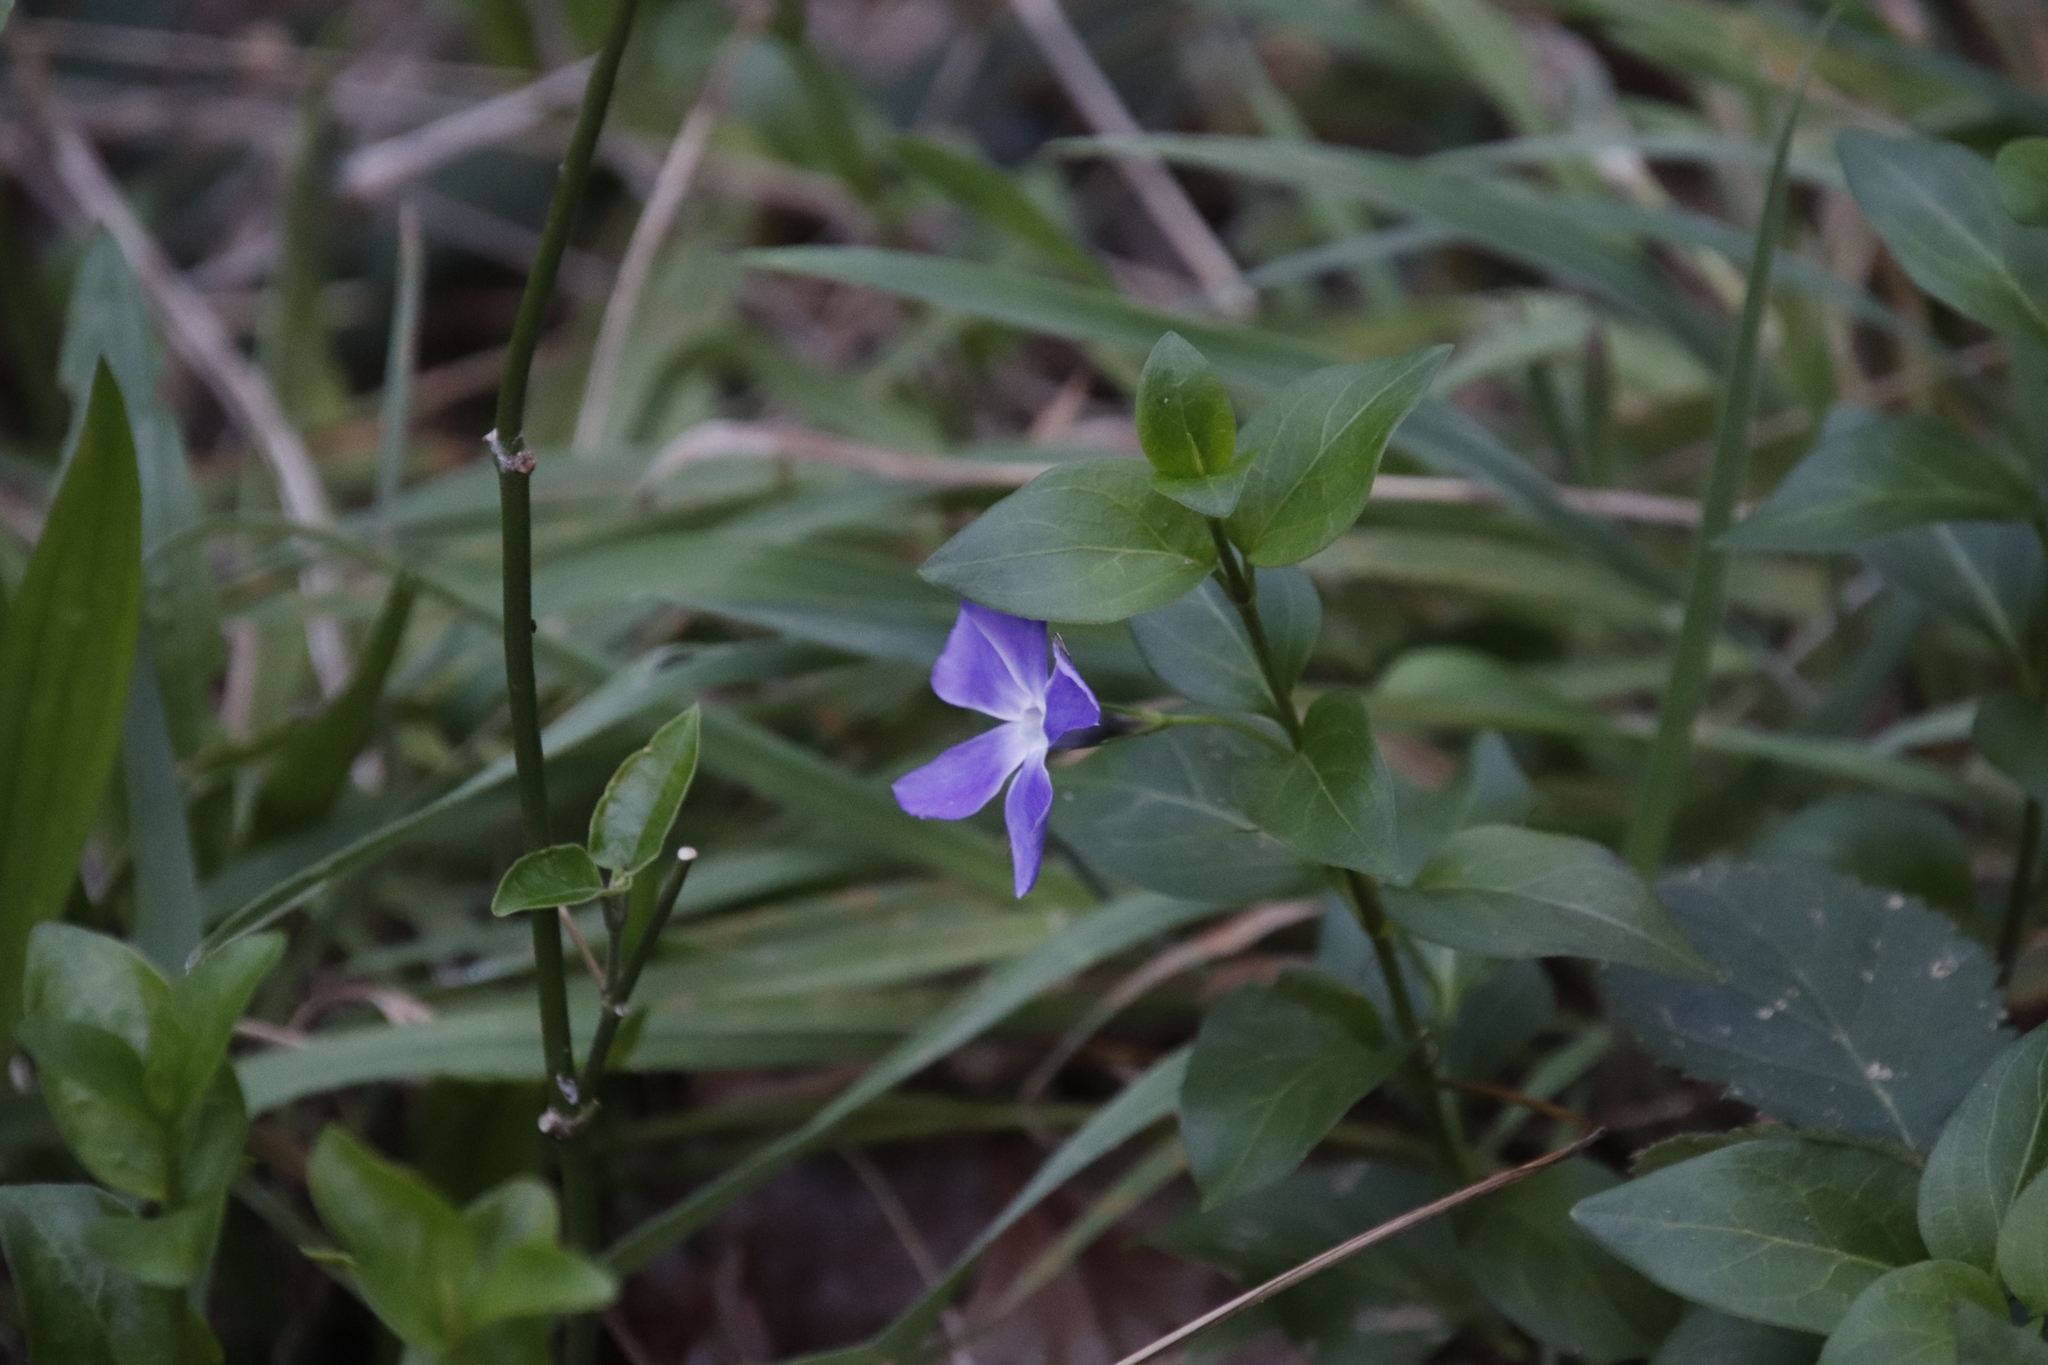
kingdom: Plantae
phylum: Tracheophyta
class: Magnoliopsida
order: Gentianales
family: Apocynaceae
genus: Vinca
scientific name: Vinca major
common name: Greater periwinkle
